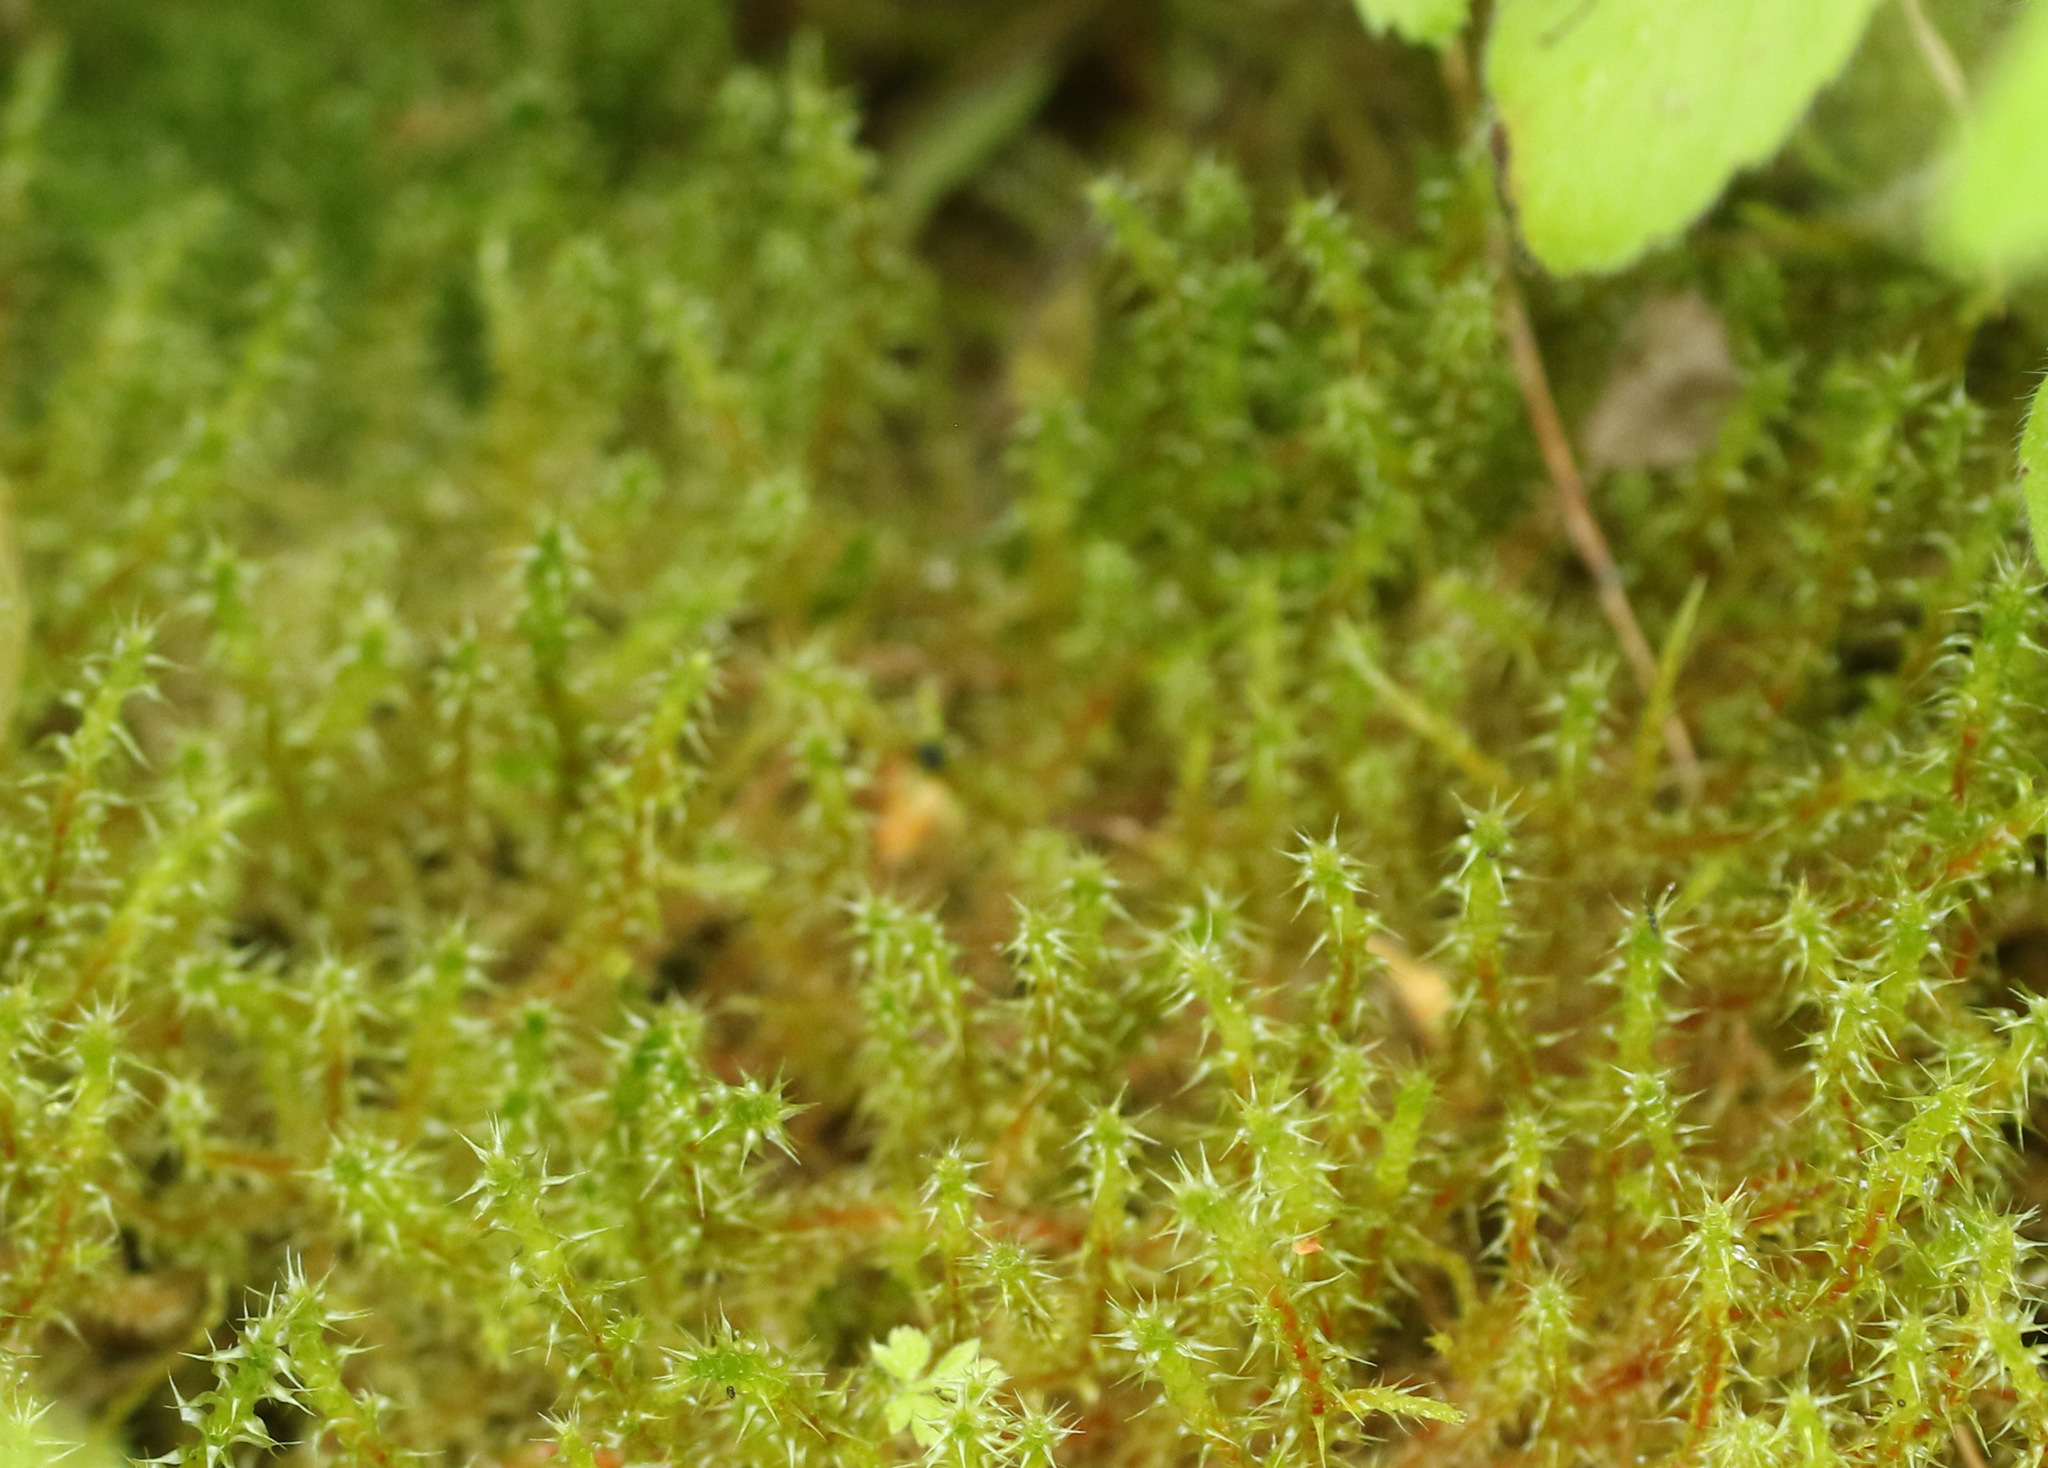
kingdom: Plantae
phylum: Bryophyta
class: Bryopsida
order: Hypnales
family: Hylocomiaceae
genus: Rhytidiadelphus
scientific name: Rhytidiadelphus squarrosus
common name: Springy turf-moss
